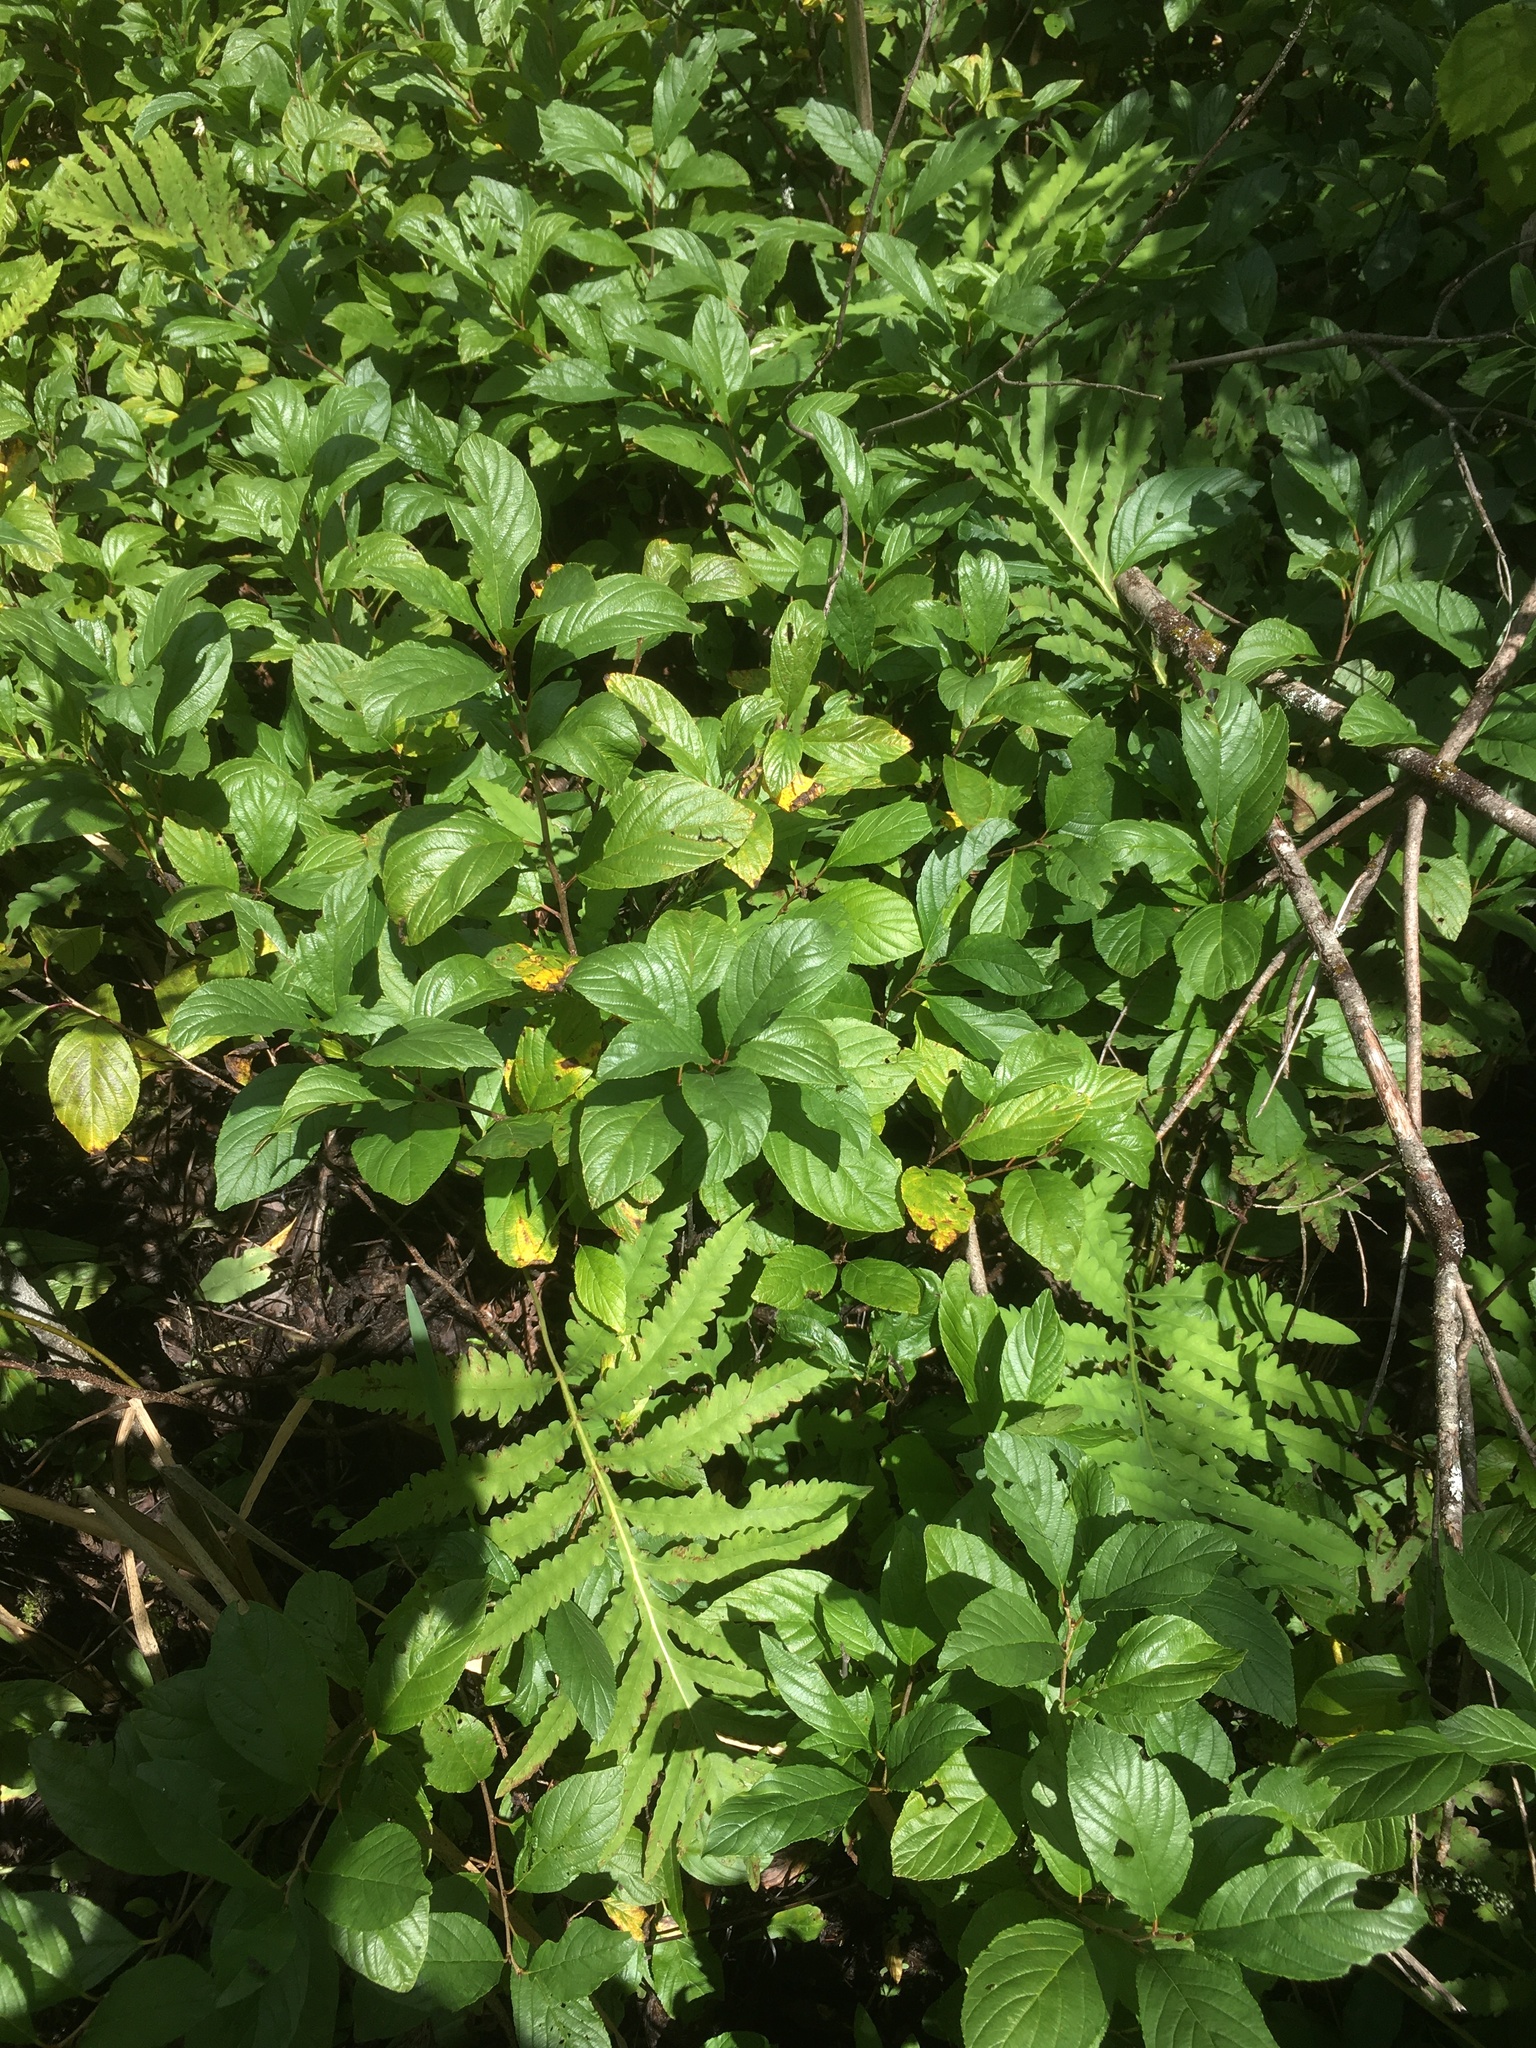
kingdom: Plantae
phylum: Tracheophyta
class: Magnoliopsida
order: Rosales
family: Rhamnaceae
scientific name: Rhamnaceae
